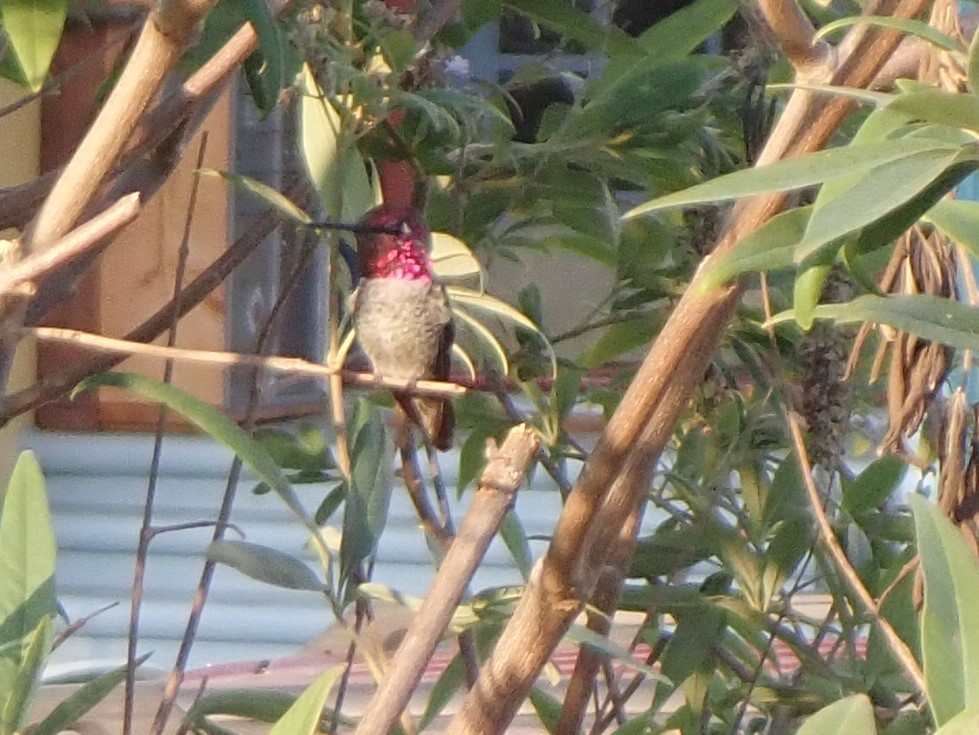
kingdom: Animalia
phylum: Chordata
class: Aves
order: Apodiformes
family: Trochilidae
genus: Calypte
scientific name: Calypte anna
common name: Anna's hummingbird
